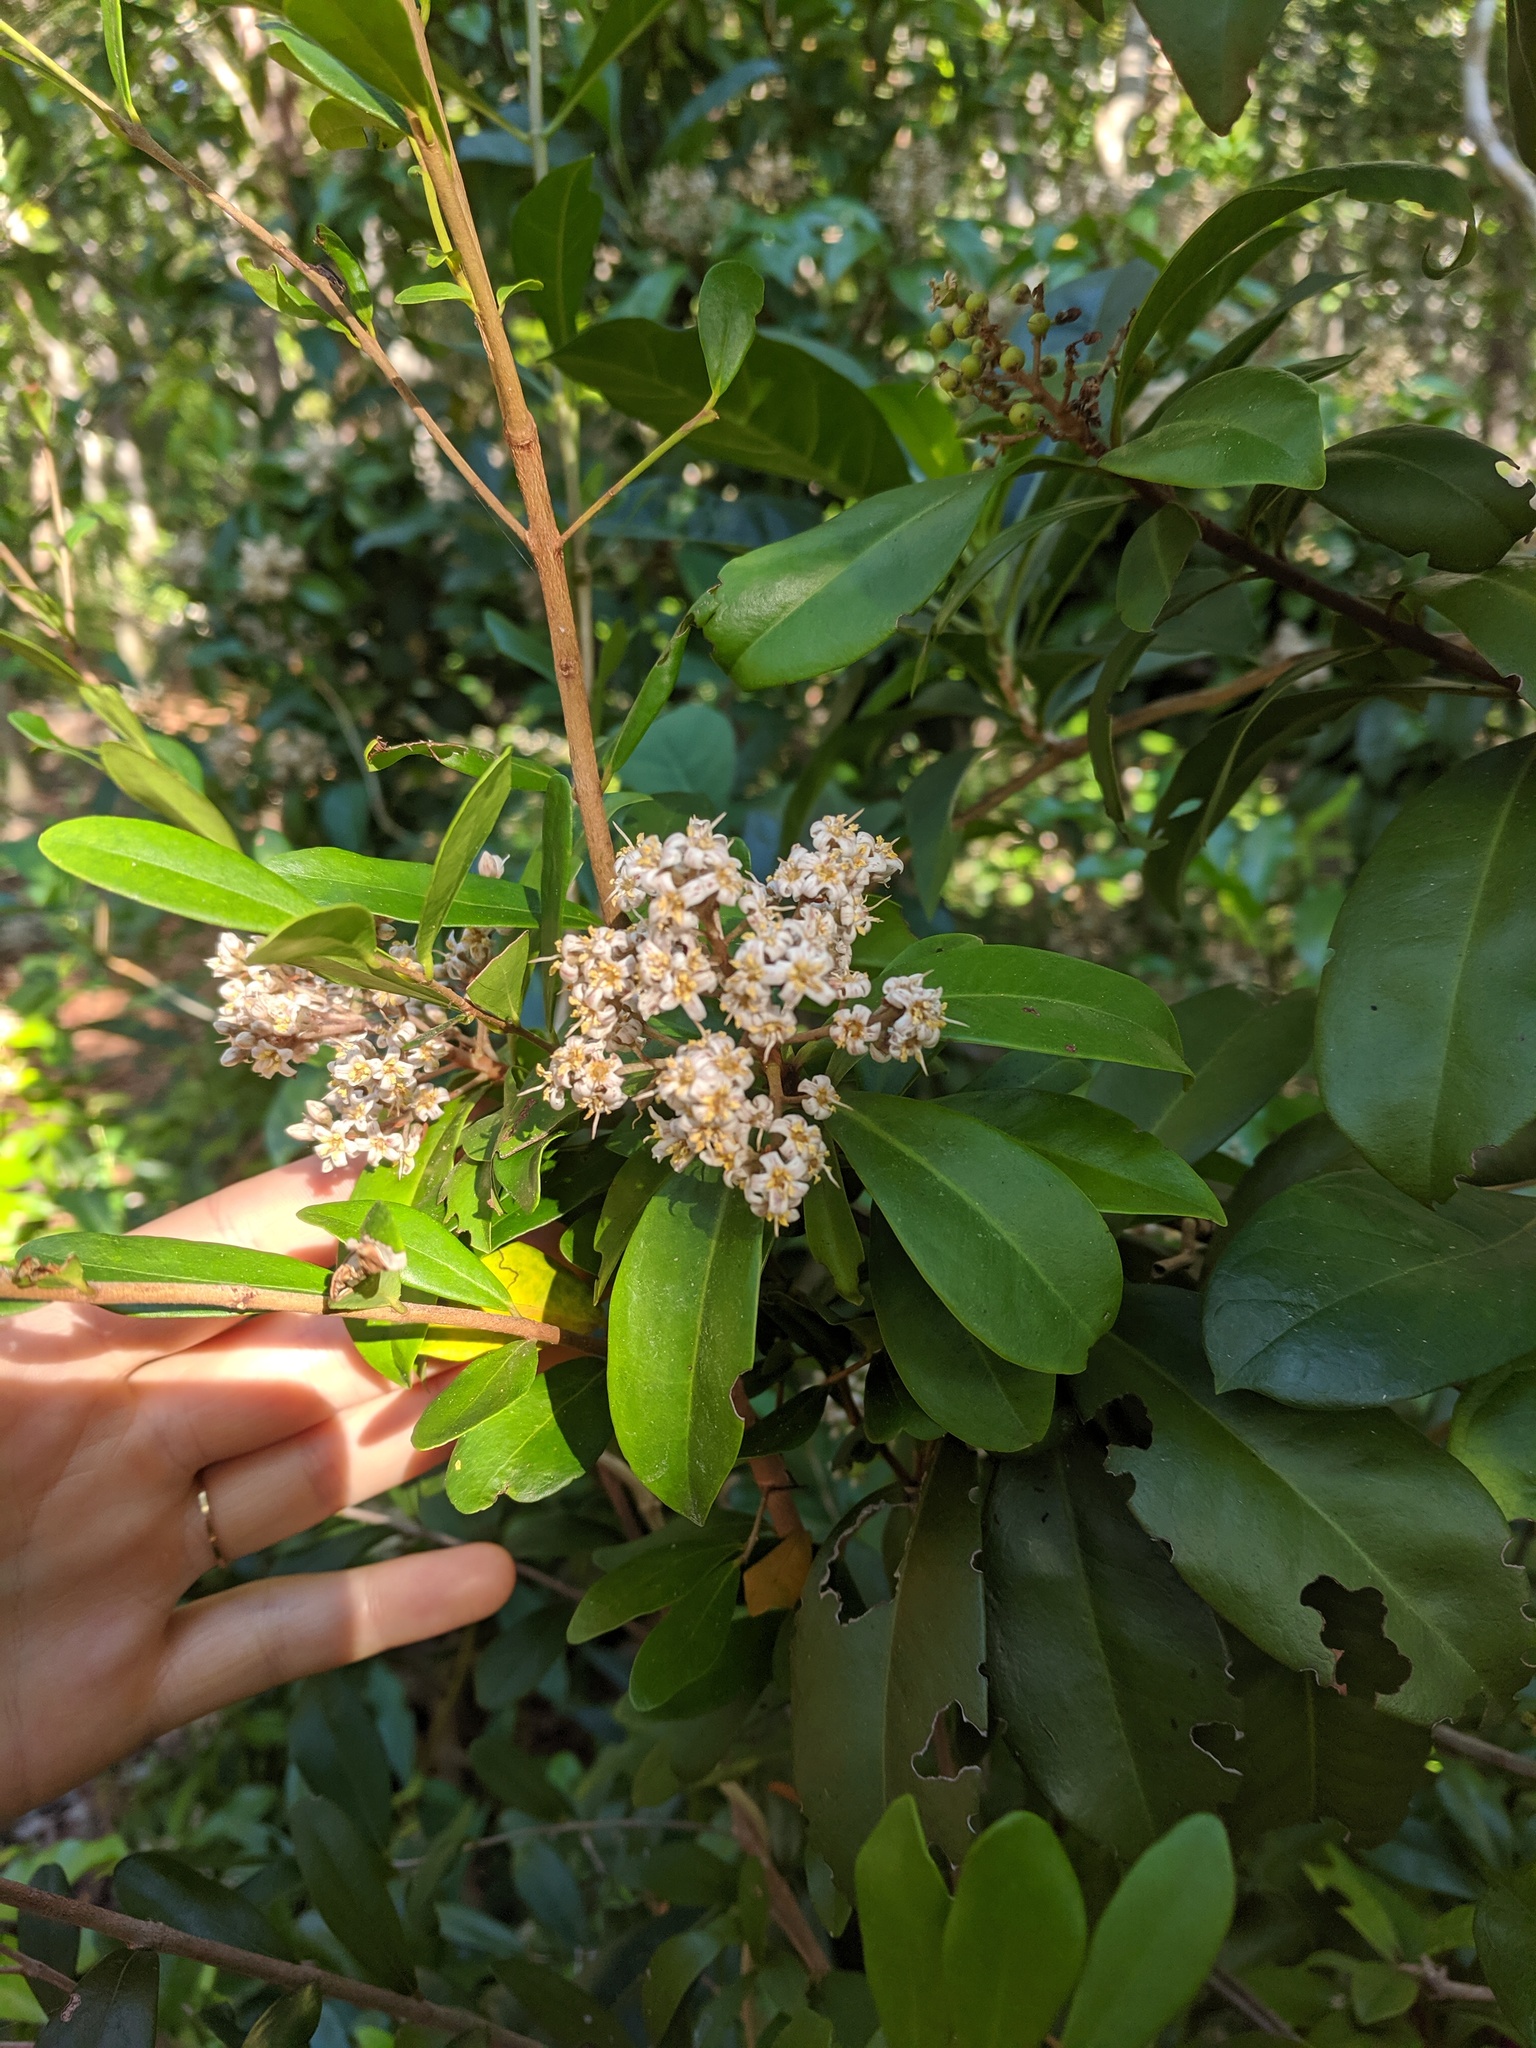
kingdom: Plantae
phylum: Tracheophyta
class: Magnoliopsida
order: Ericales
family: Primulaceae
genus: Ardisia
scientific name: Ardisia escallonioides
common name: Island marlberry
